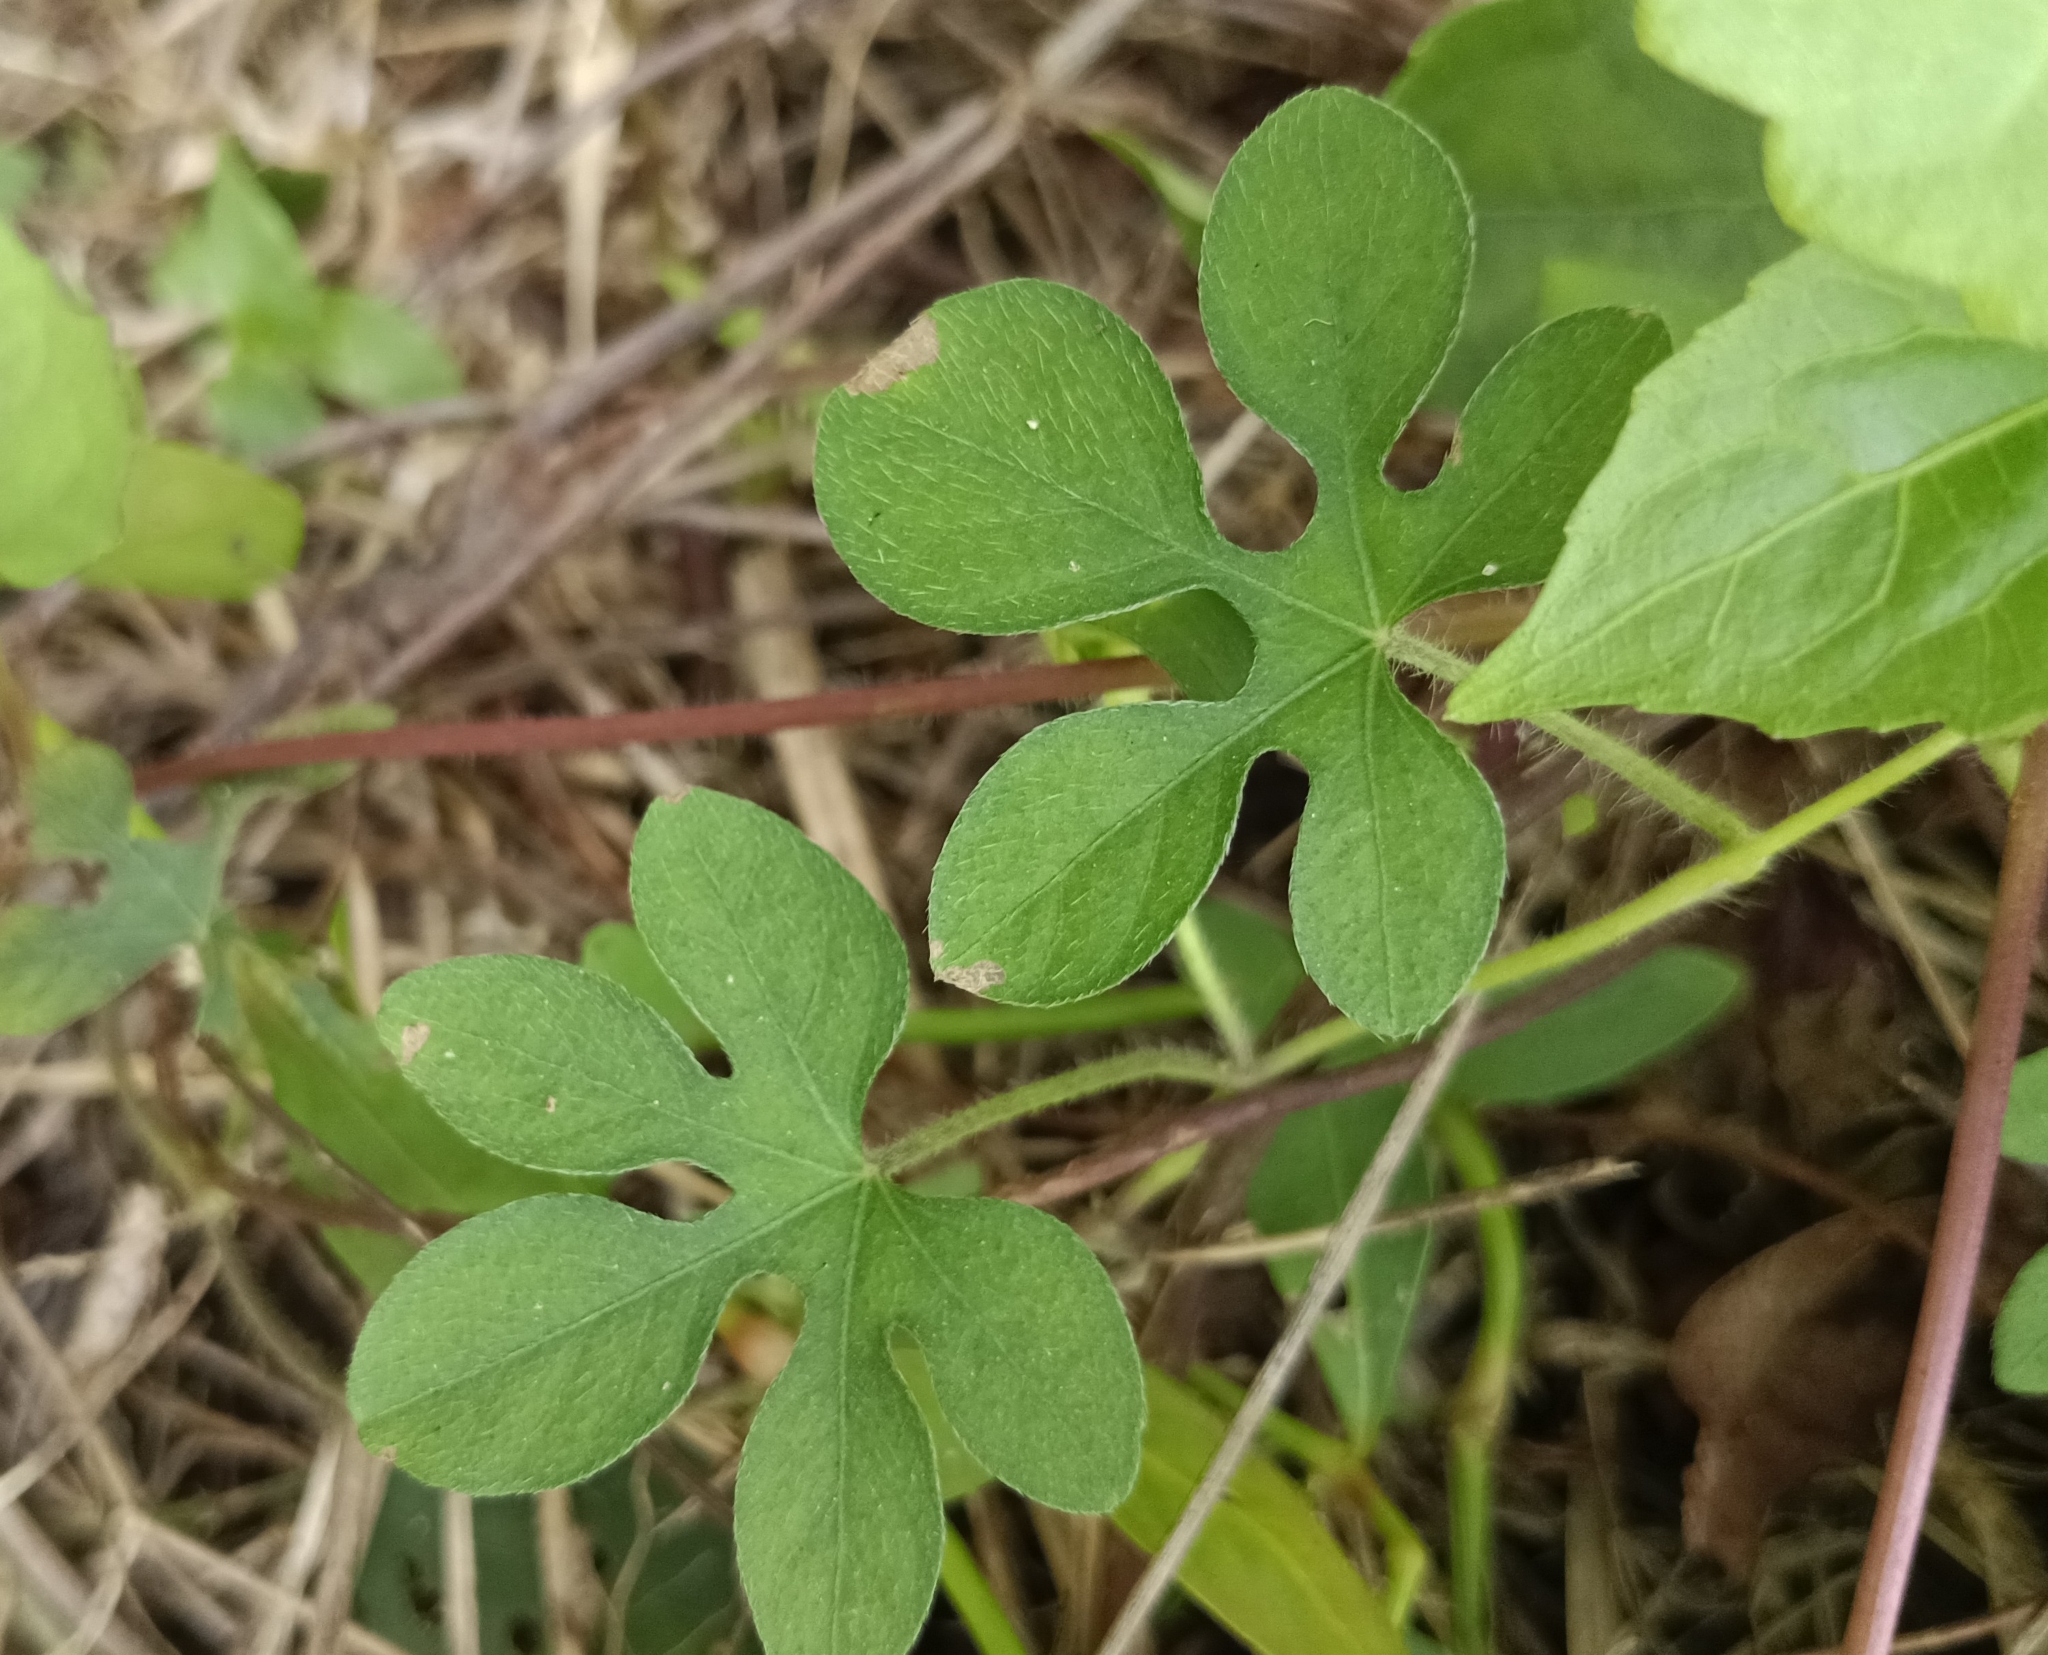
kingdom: Plantae
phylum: Tracheophyta
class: Magnoliopsida
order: Solanales
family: Convolvulaceae
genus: Ipomoea
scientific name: Ipomoea pes-tigridis
